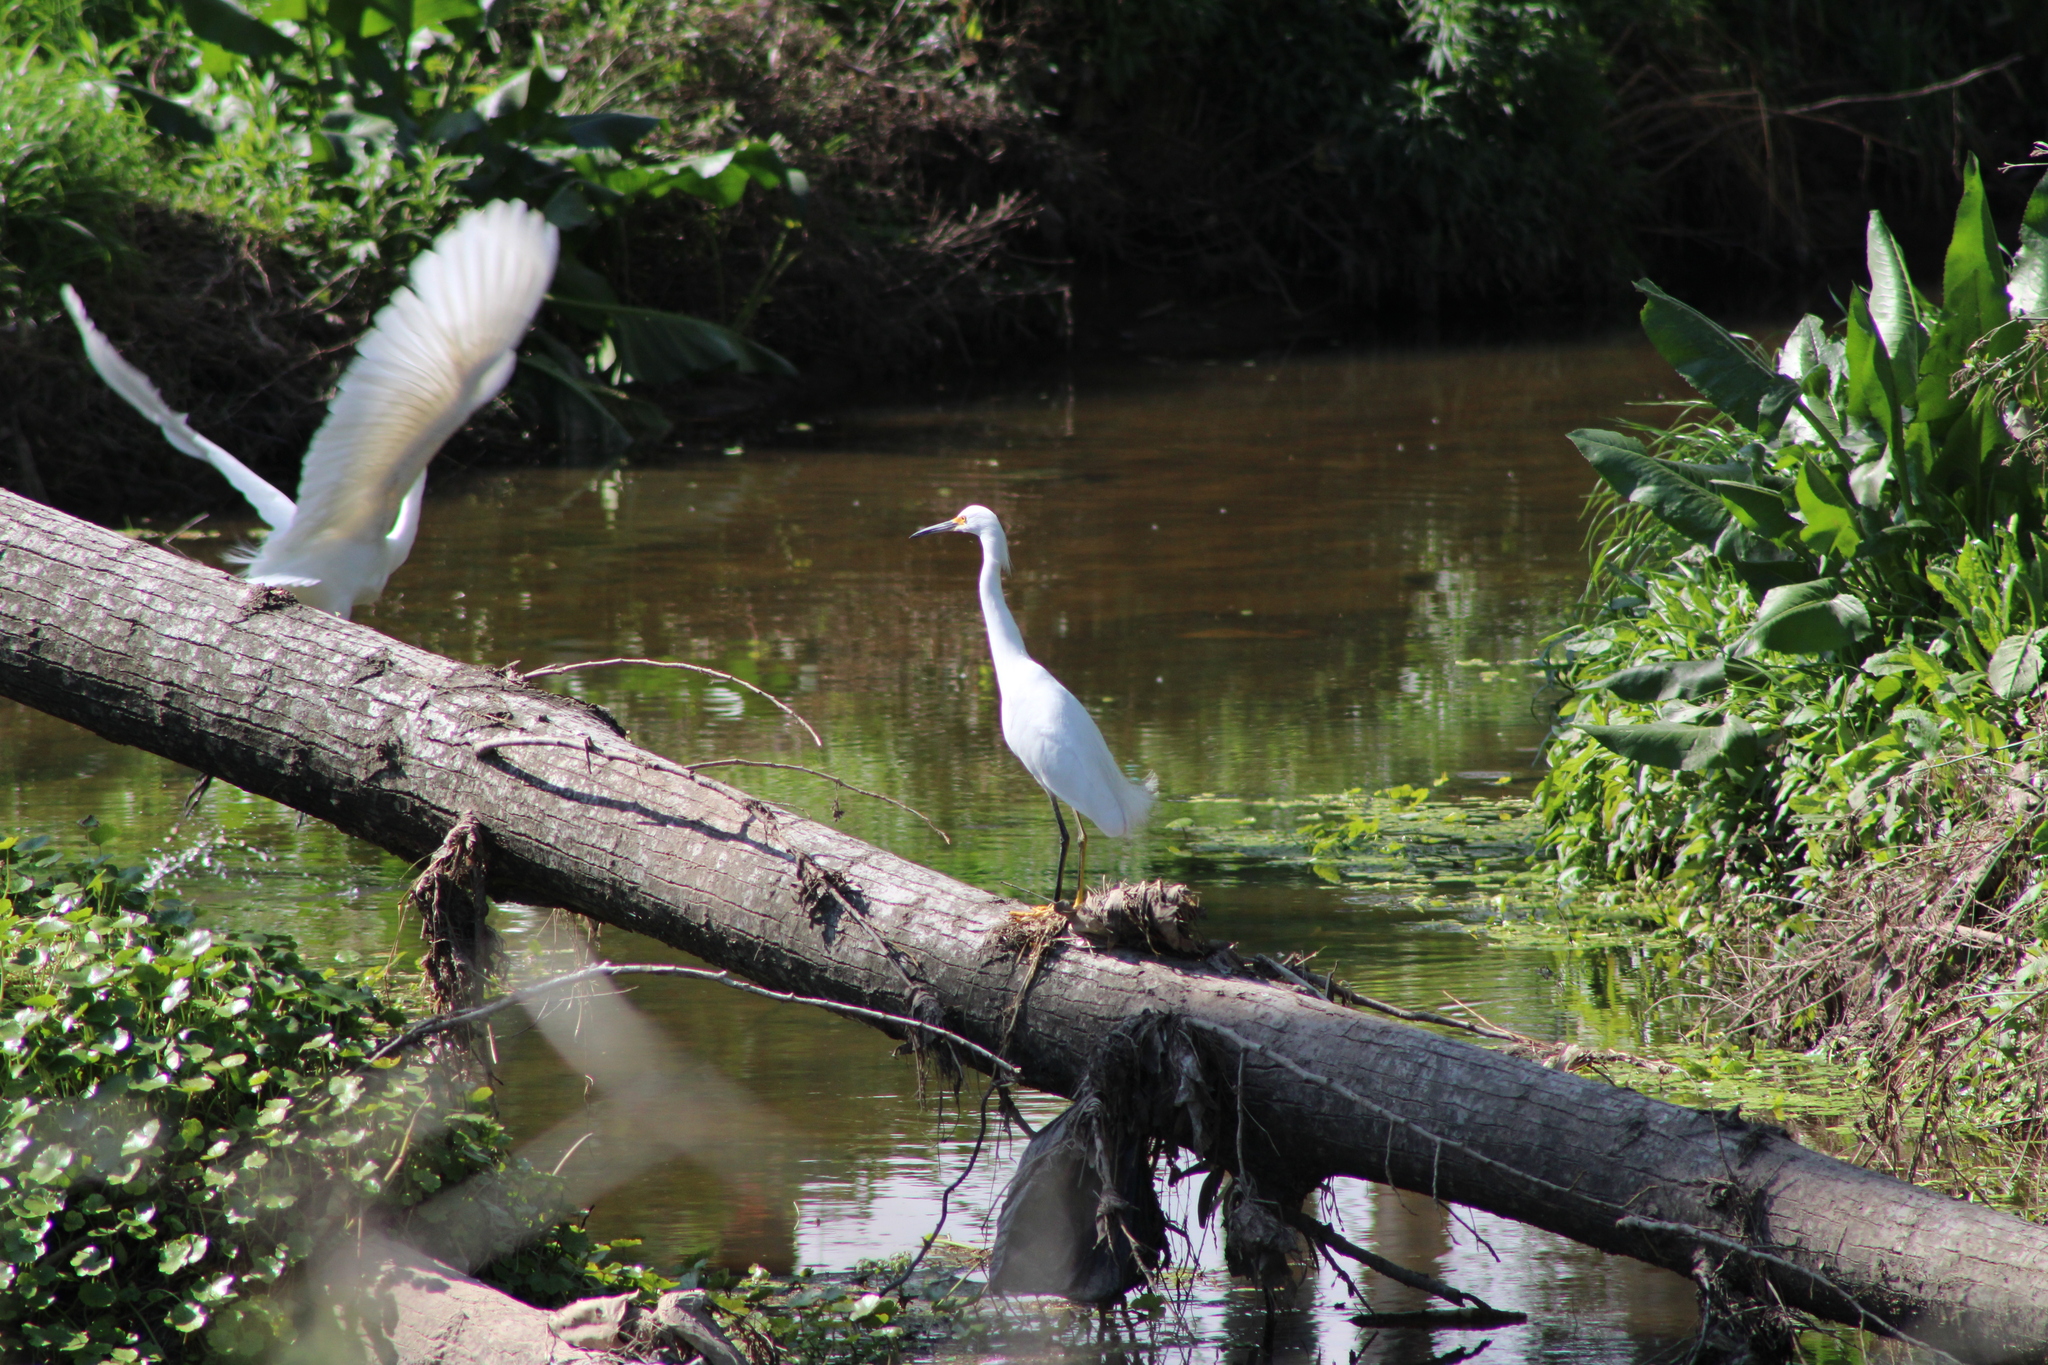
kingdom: Animalia
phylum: Chordata
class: Aves
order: Pelecaniformes
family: Ardeidae
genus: Egretta
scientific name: Egretta thula
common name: Snowy egret
